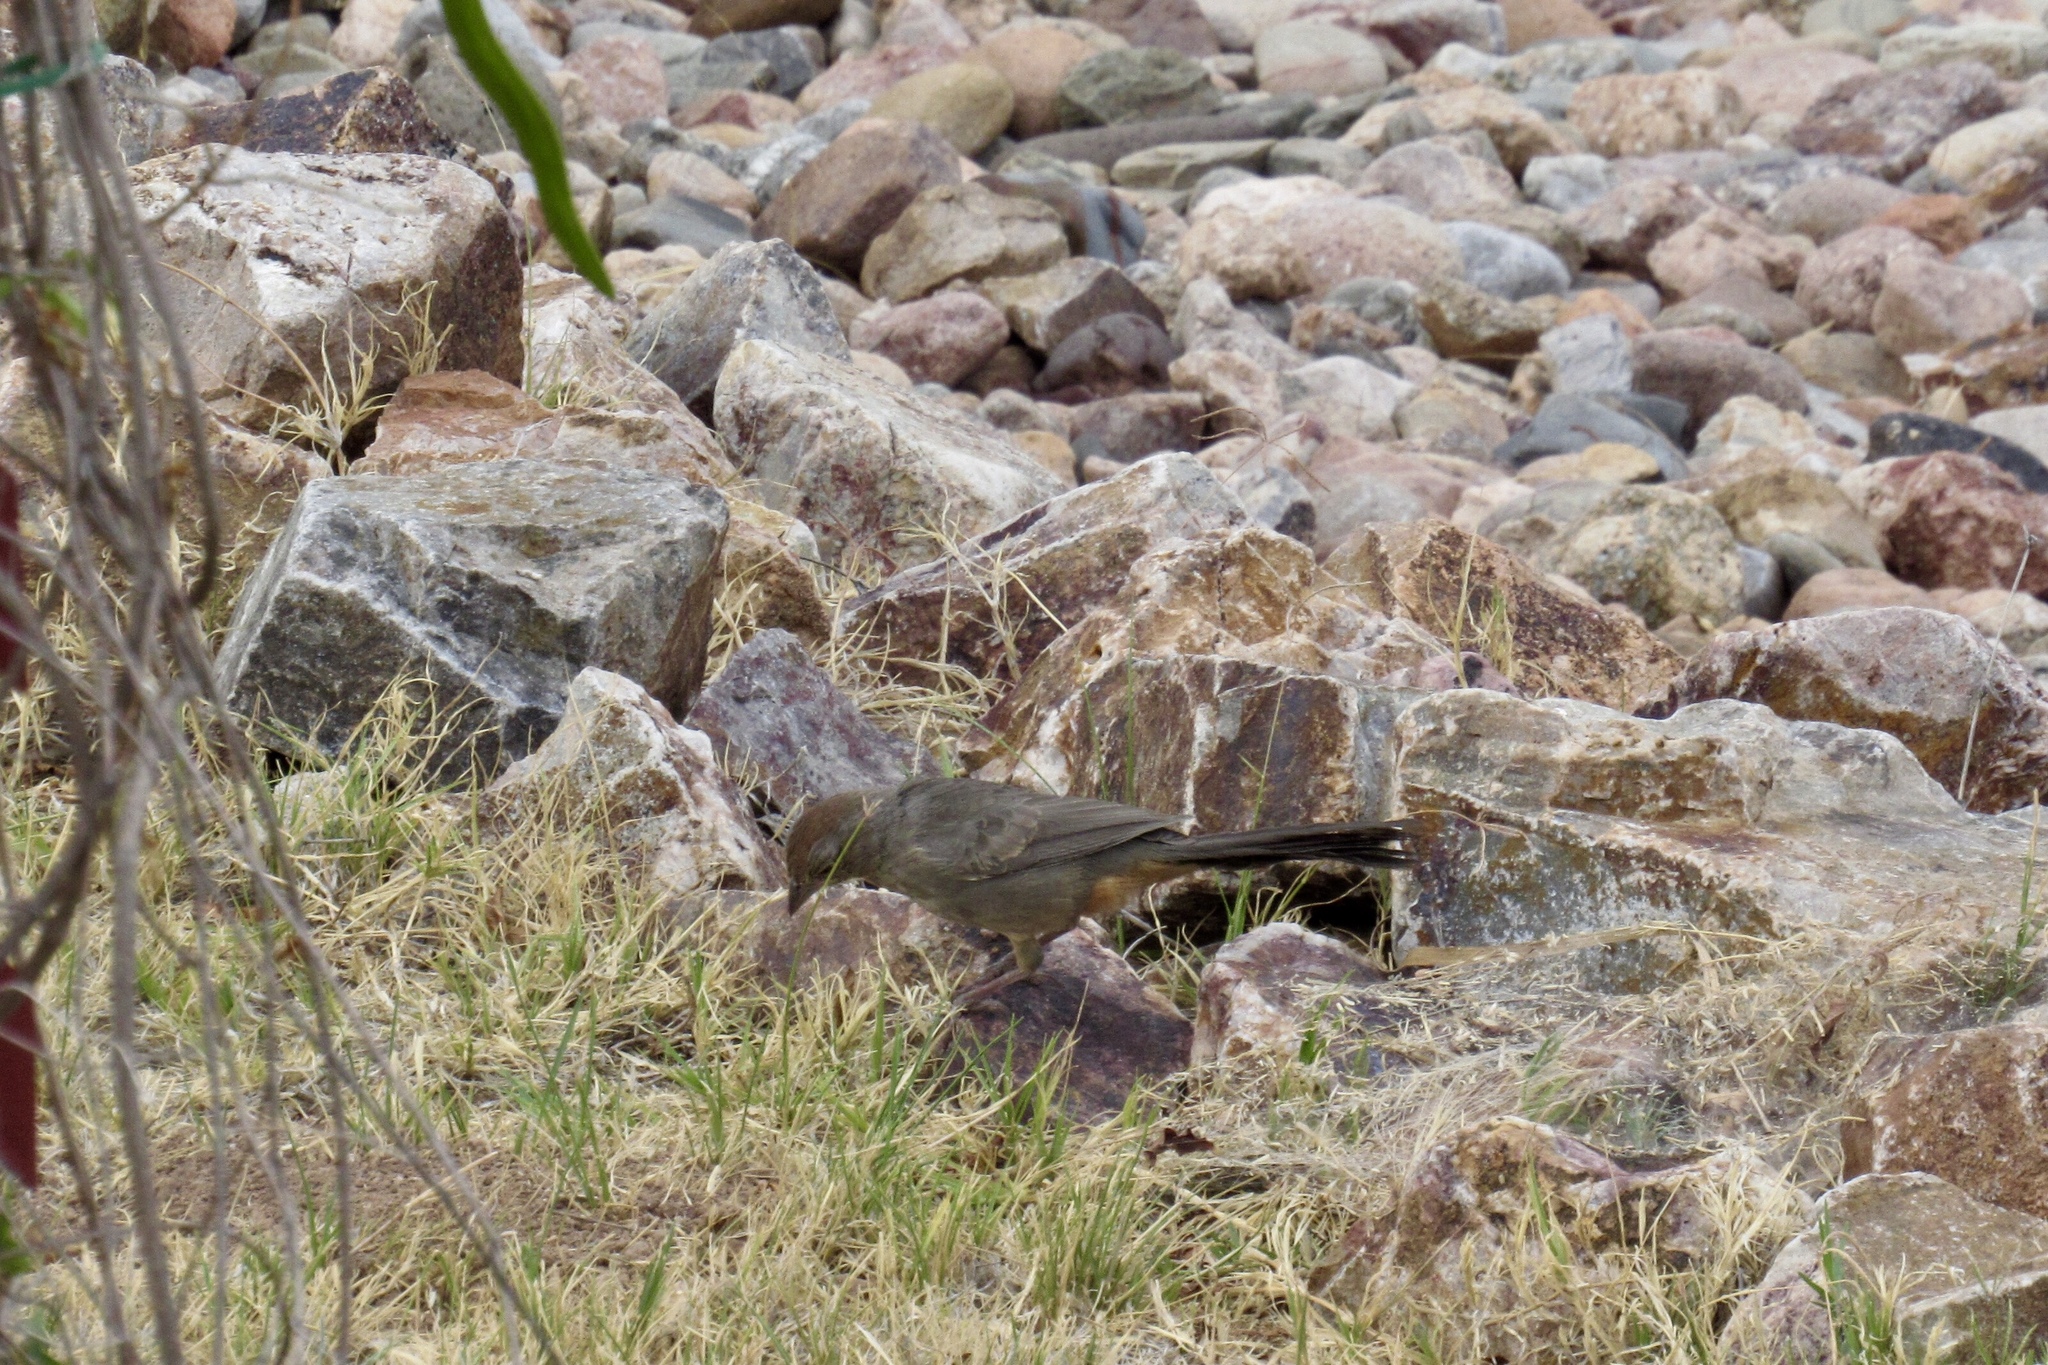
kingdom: Animalia
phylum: Chordata
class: Aves
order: Passeriformes
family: Passerellidae
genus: Melozone
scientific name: Melozone fusca
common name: Canyon towhee
